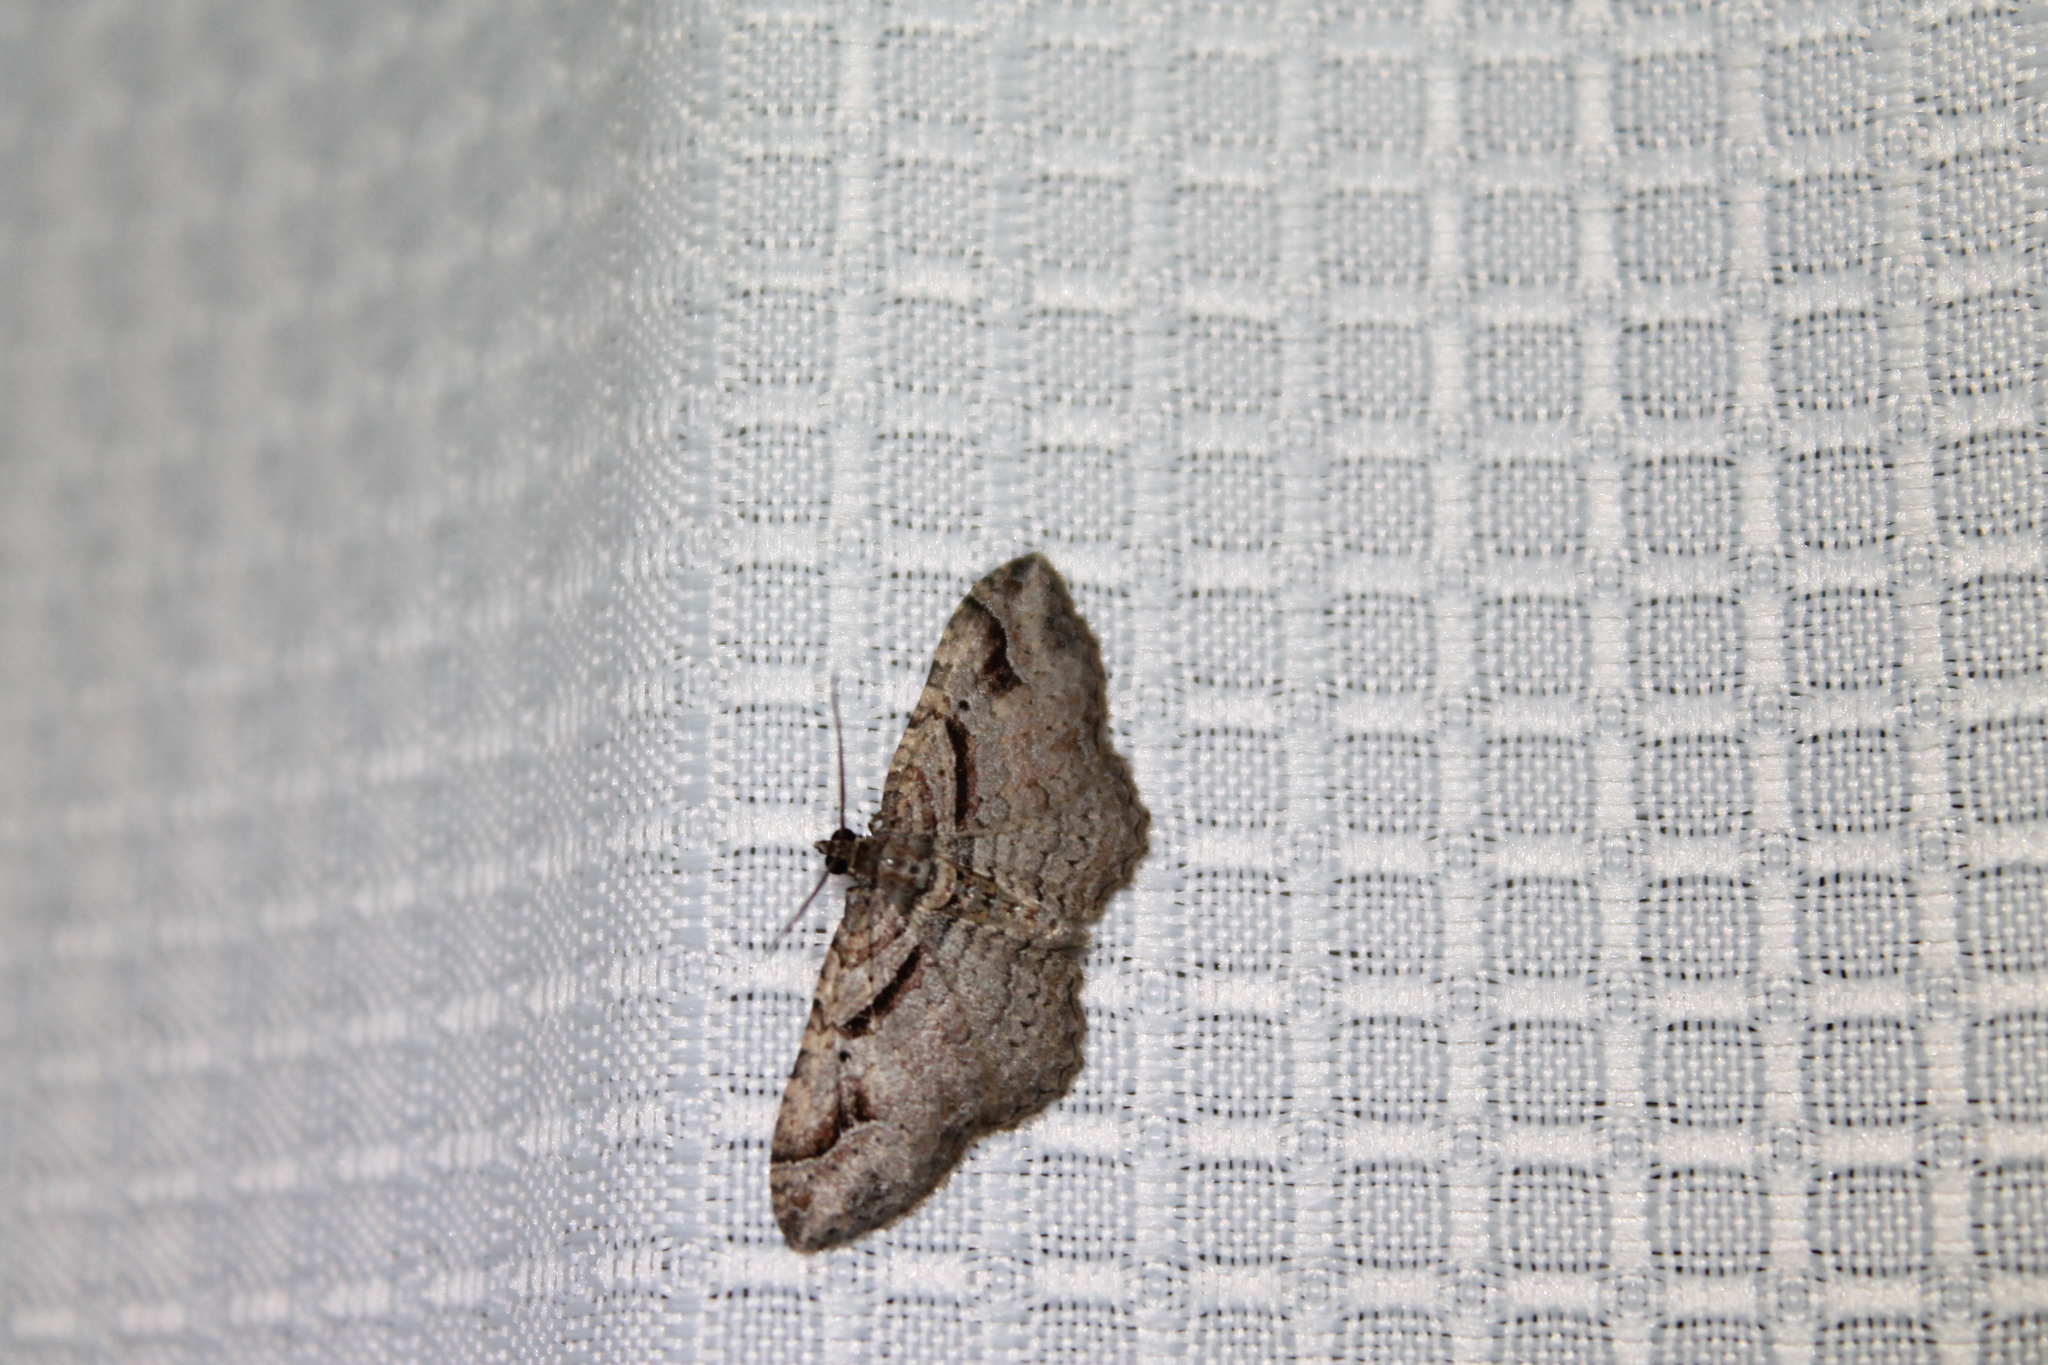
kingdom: Animalia
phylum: Arthropoda
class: Insecta
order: Lepidoptera
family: Geometridae
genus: Costaconvexa
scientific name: Costaconvexa centrostrigaria
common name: Bent-line carpet
